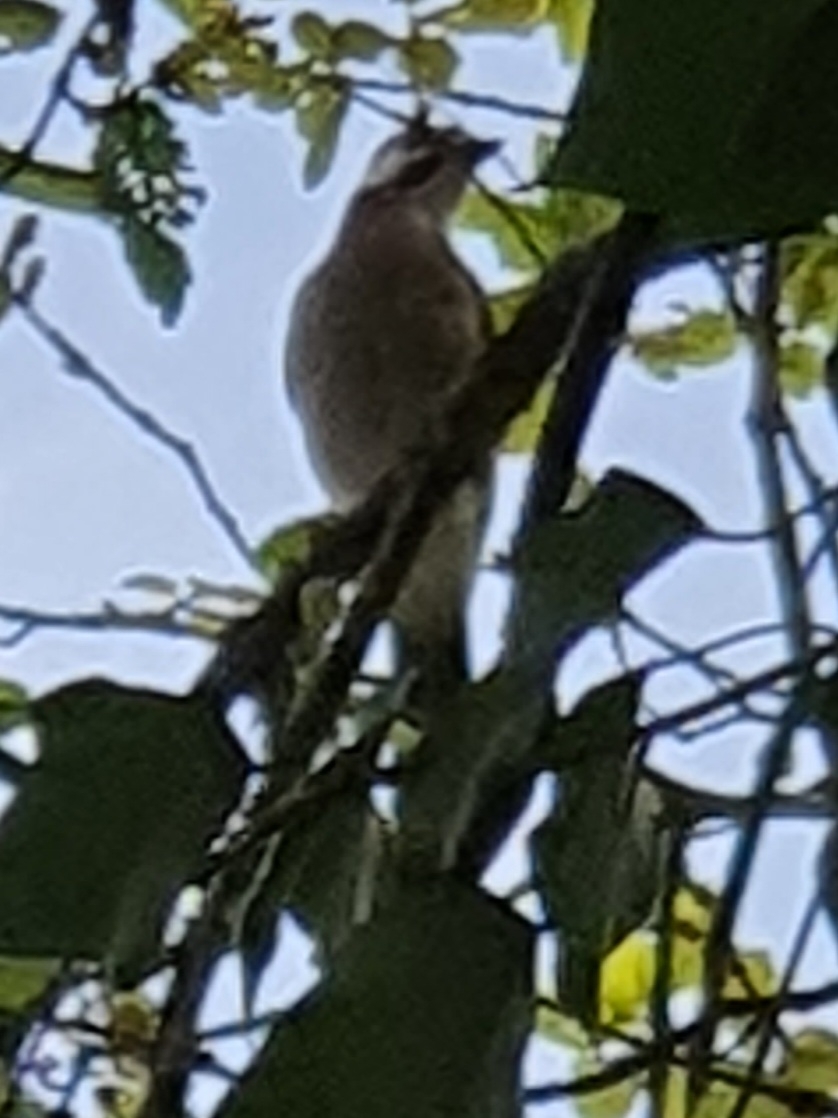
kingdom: Animalia
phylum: Chordata
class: Aves
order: Passeriformes
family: Corvidae
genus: Garrulus
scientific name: Garrulus glandarius
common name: Eurasian jay
